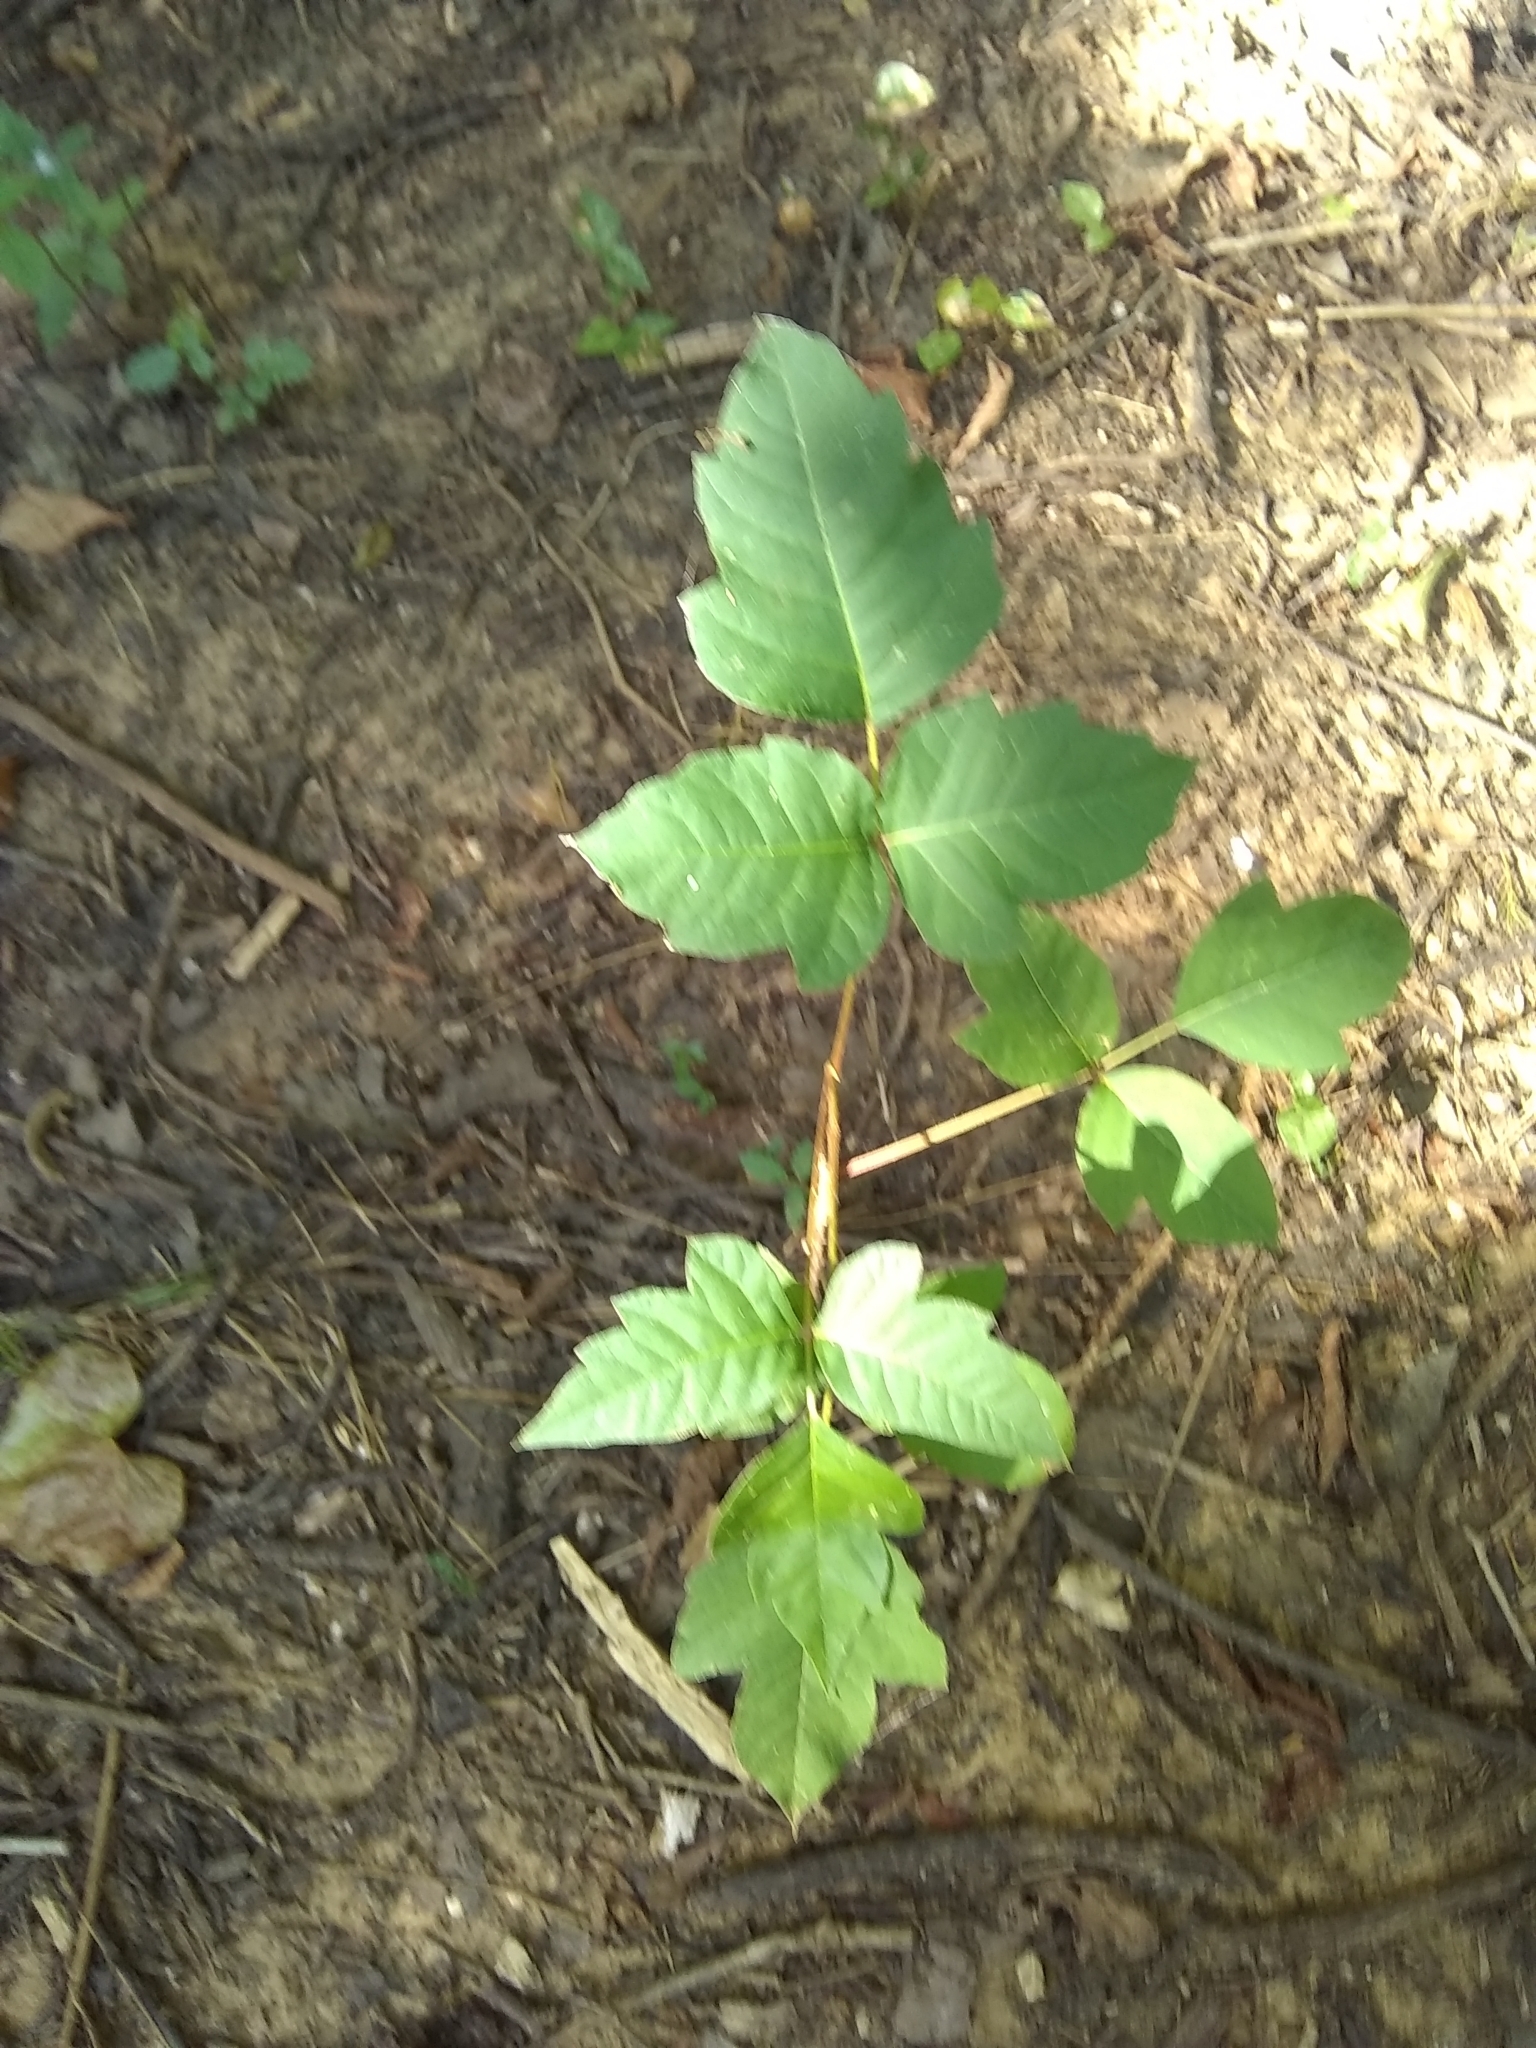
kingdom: Plantae
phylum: Tracheophyta
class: Magnoliopsida
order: Sapindales
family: Anacardiaceae
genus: Toxicodendron
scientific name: Toxicodendron radicans
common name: Poison ivy
